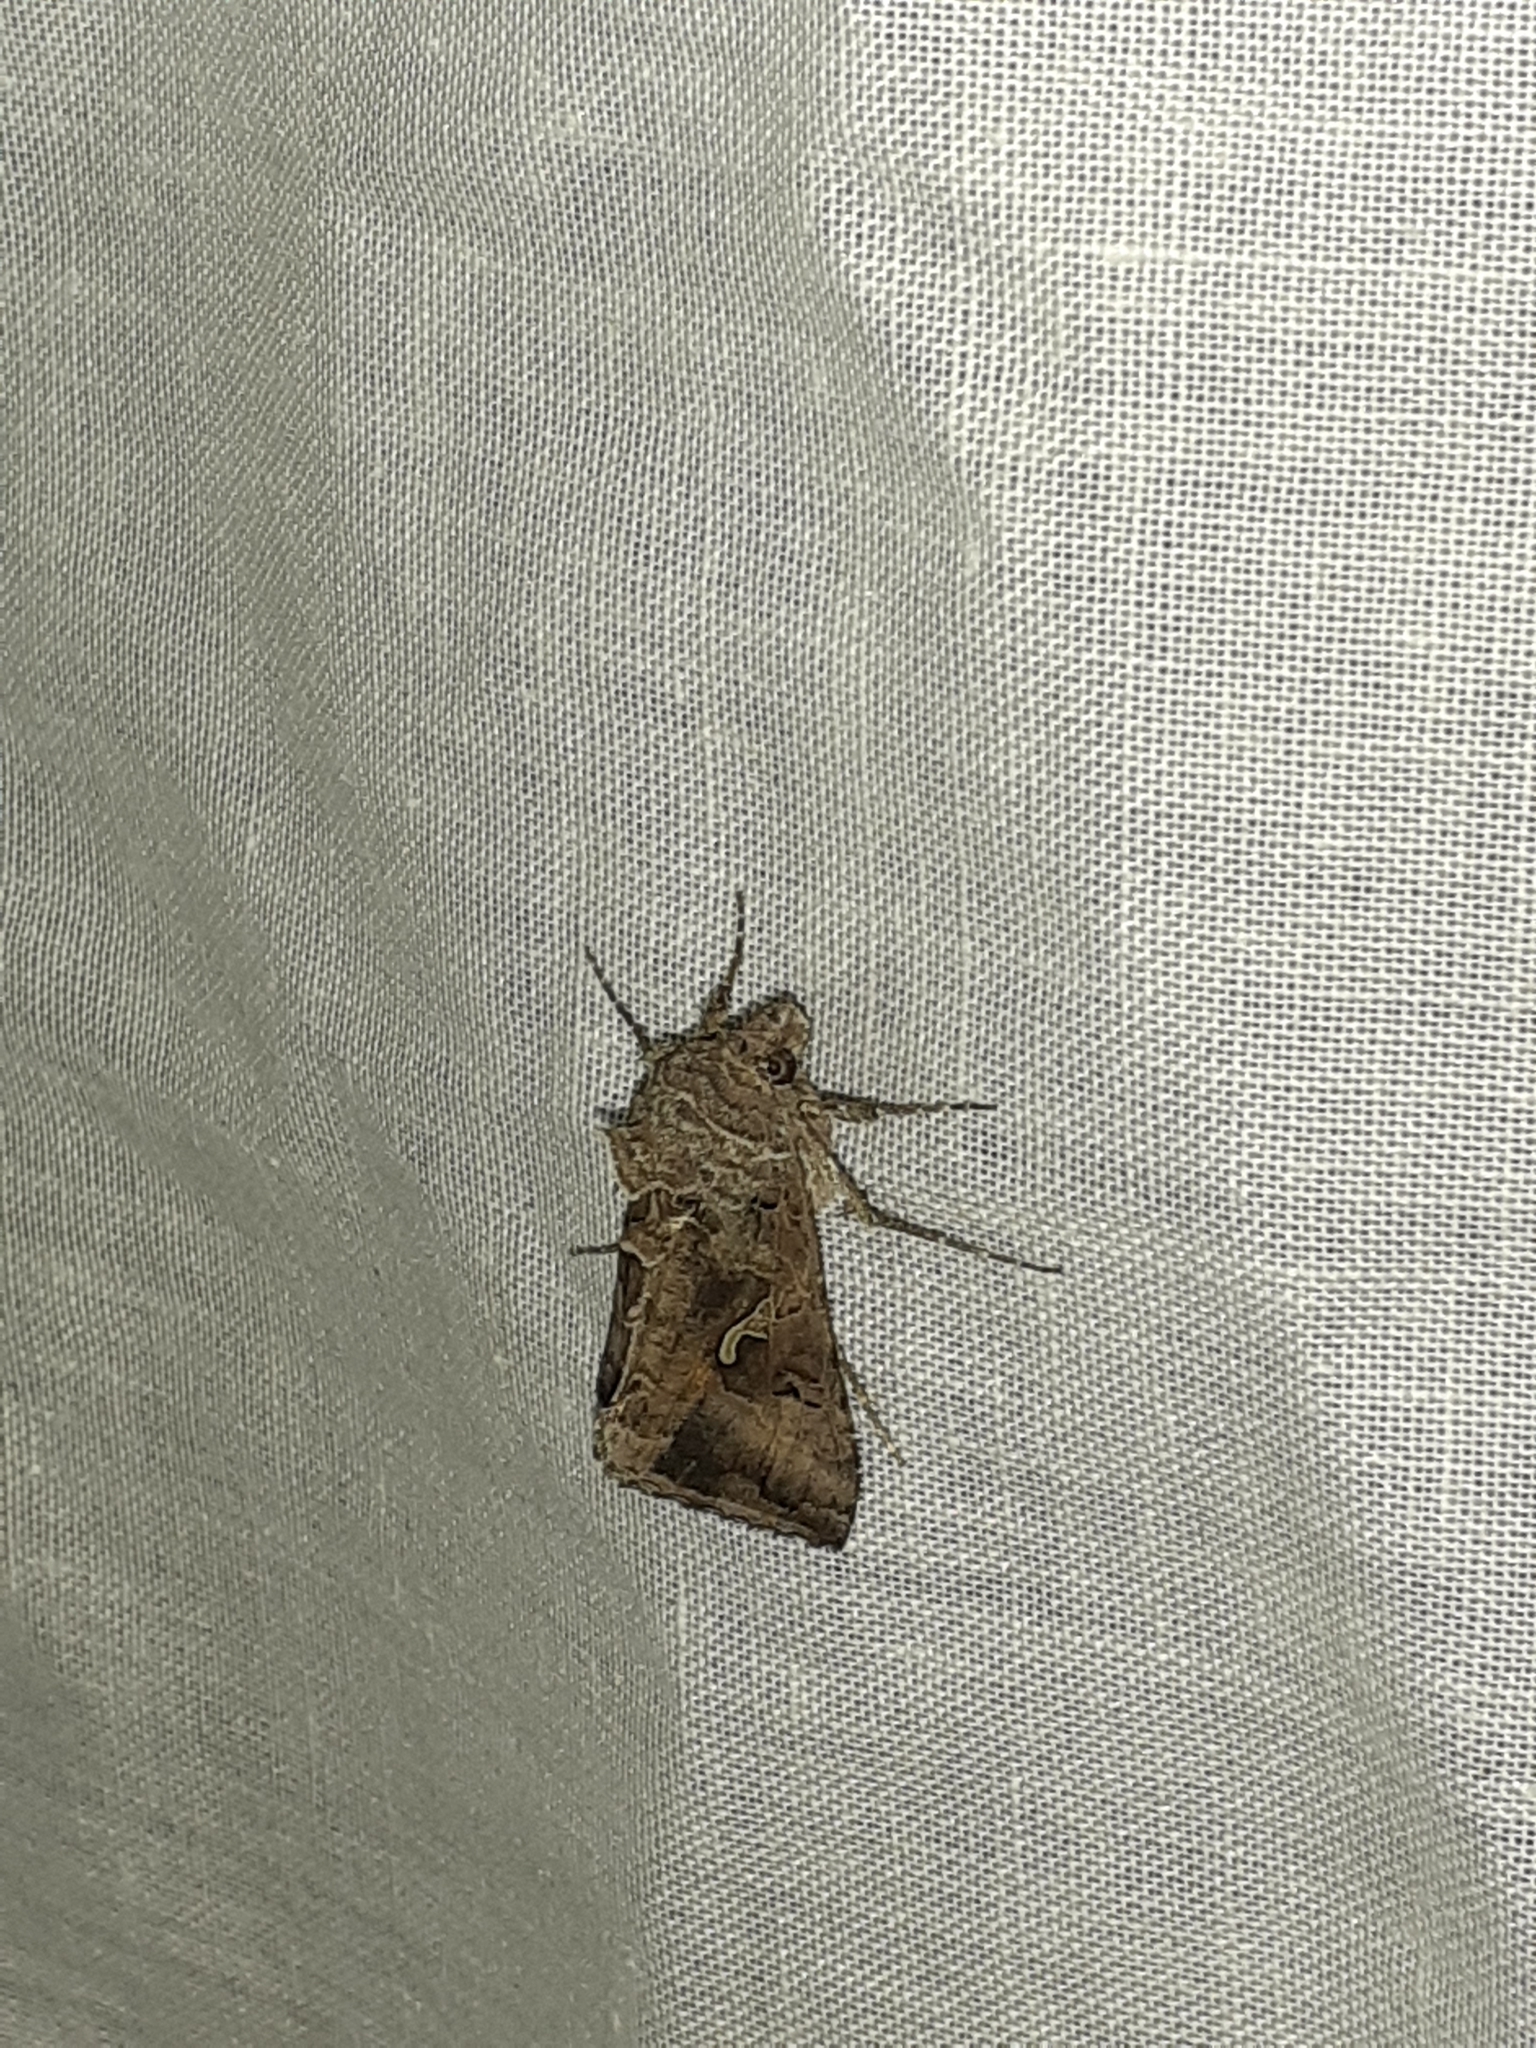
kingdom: Animalia
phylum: Arthropoda
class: Insecta
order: Lepidoptera
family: Noctuidae
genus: Autographa
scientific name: Autographa gamma
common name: Silver y
